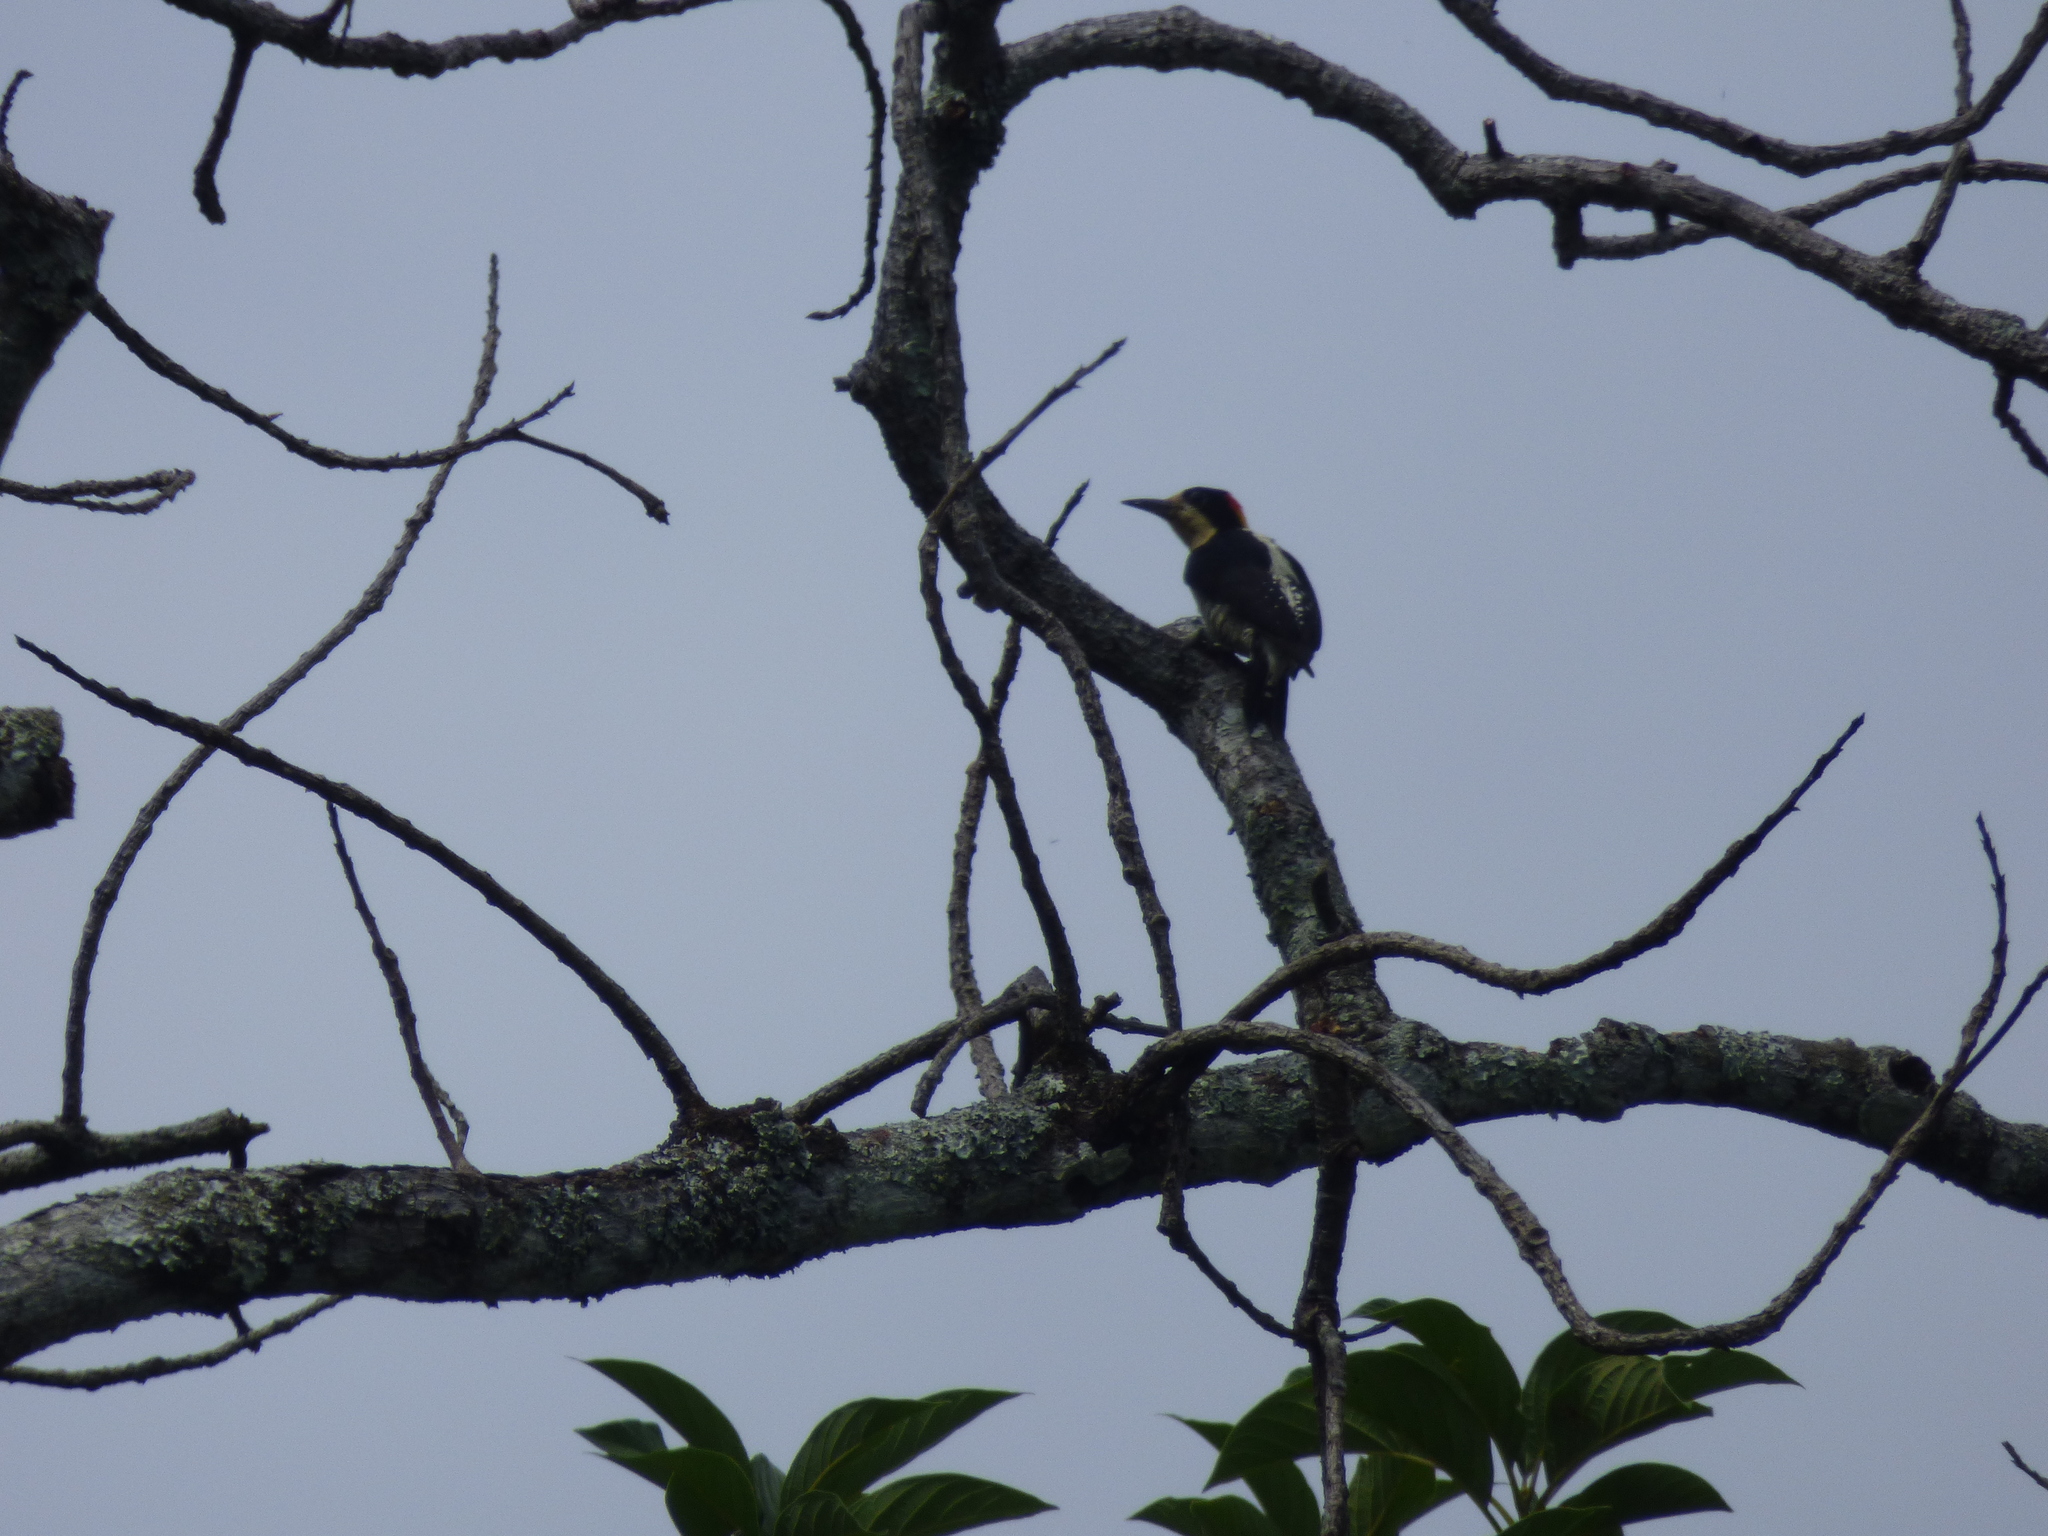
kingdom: Animalia
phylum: Chordata
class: Aves
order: Piciformes
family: Picidae
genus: Melanerpes
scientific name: Melanerpes pulcher
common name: Beautiful woodpecker
